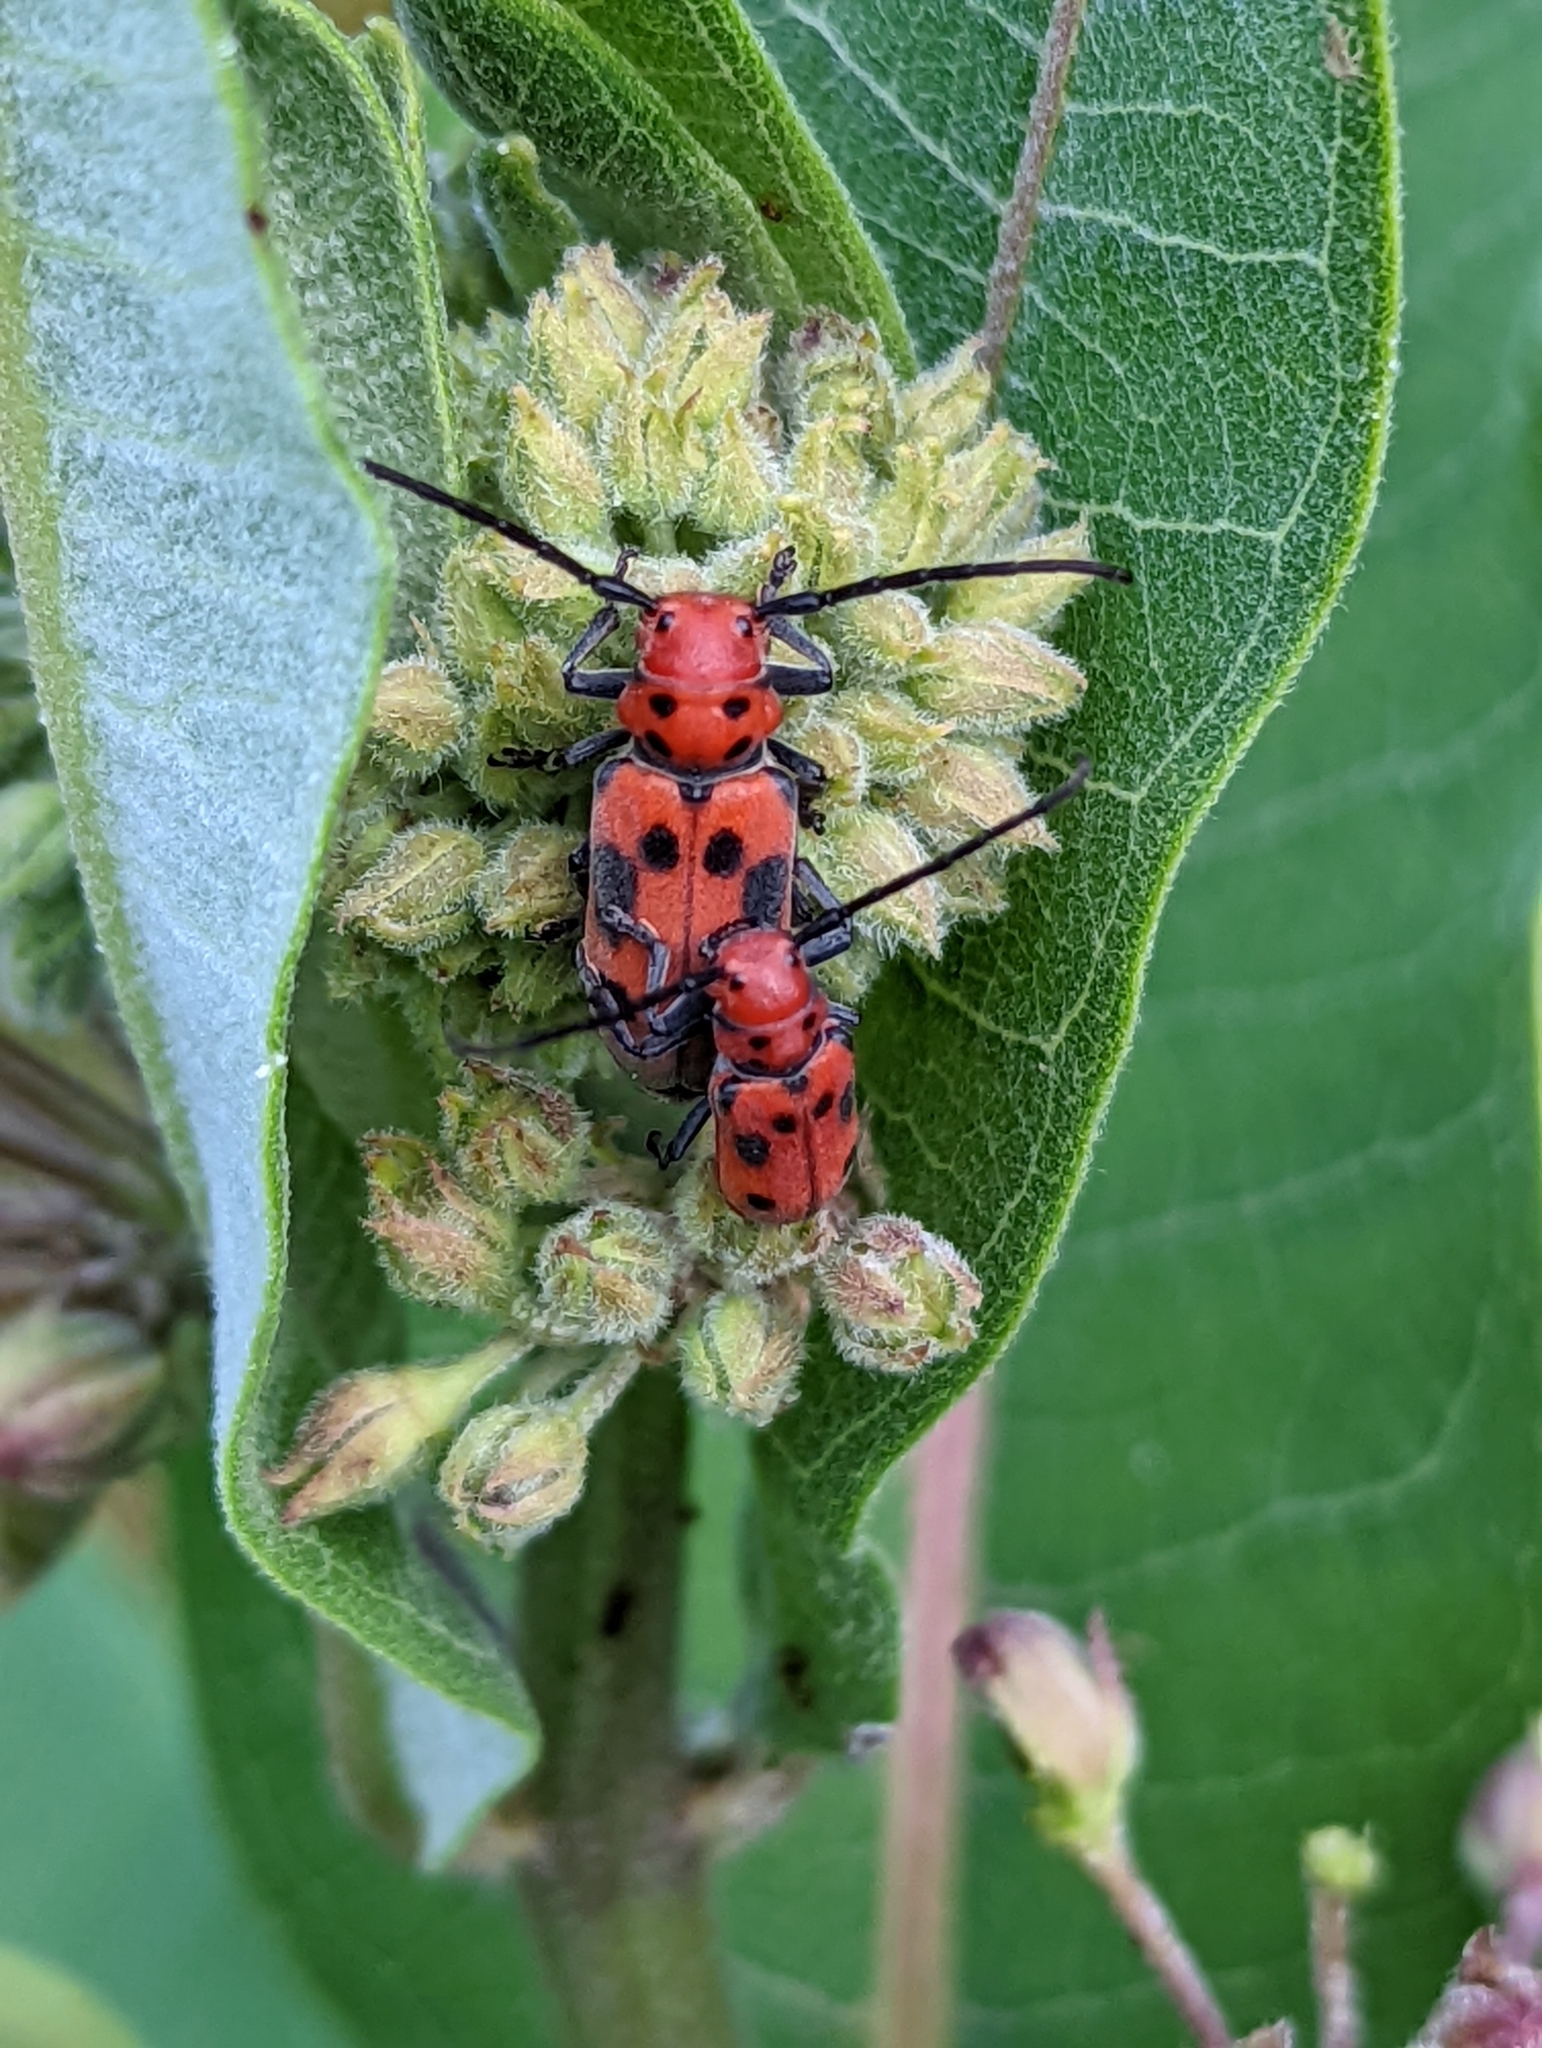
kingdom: Animalia
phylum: Arthropoda
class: Insecta
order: Coleoptera
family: Cerambycidae
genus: Tetraopes
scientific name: Tetraopes tetrophthalmus
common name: Red milkweed beetle
